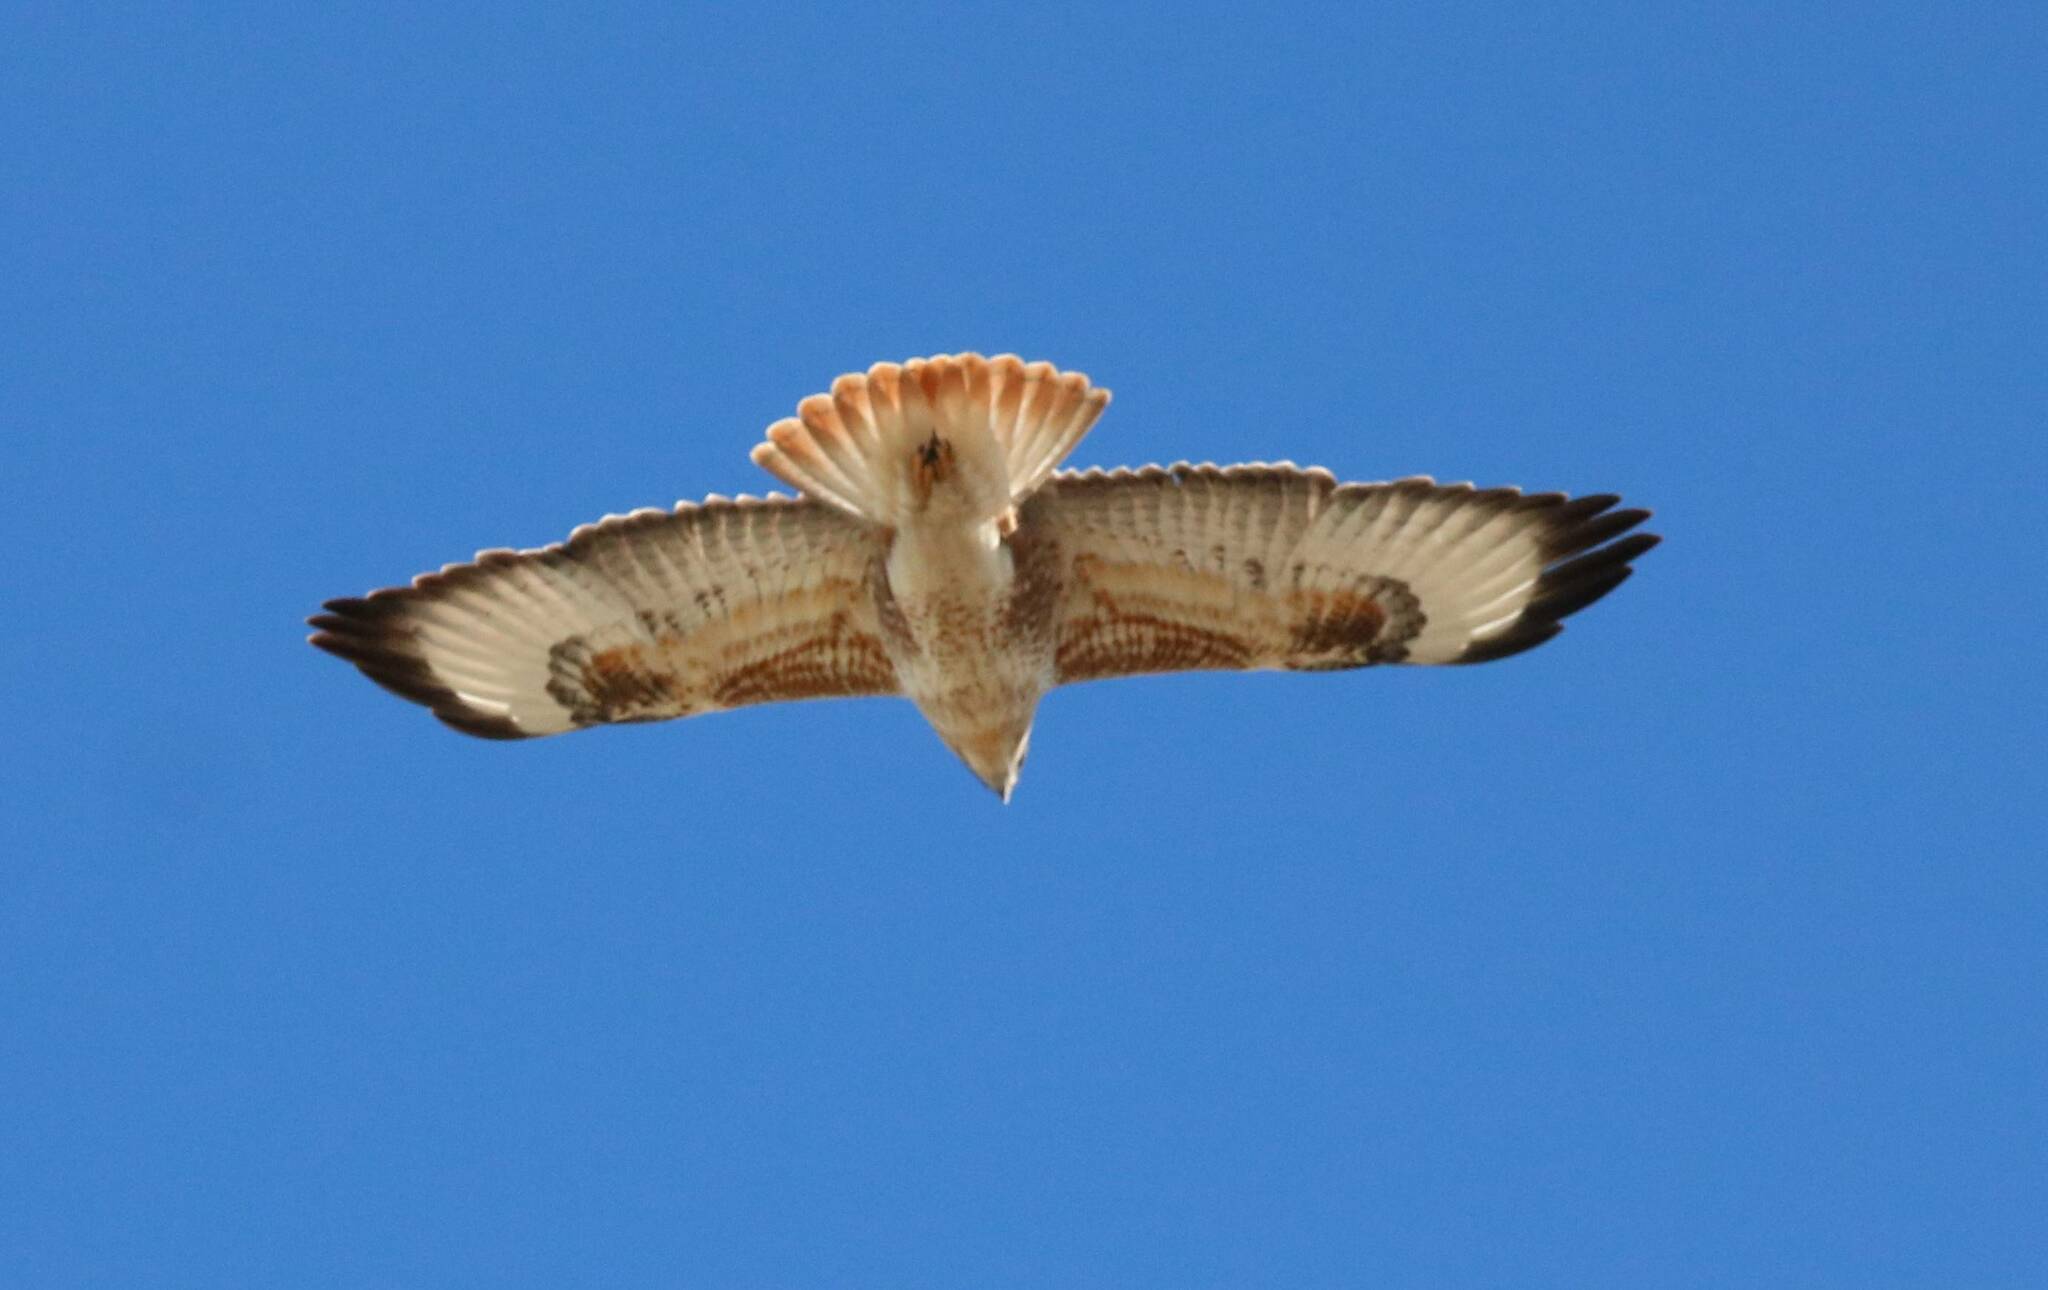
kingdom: Animalia
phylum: Chordata
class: Aves
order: Accipitriformes
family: Accipitridae
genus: Buteo
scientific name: Buteo rufinus
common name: Long-legged buzzard
